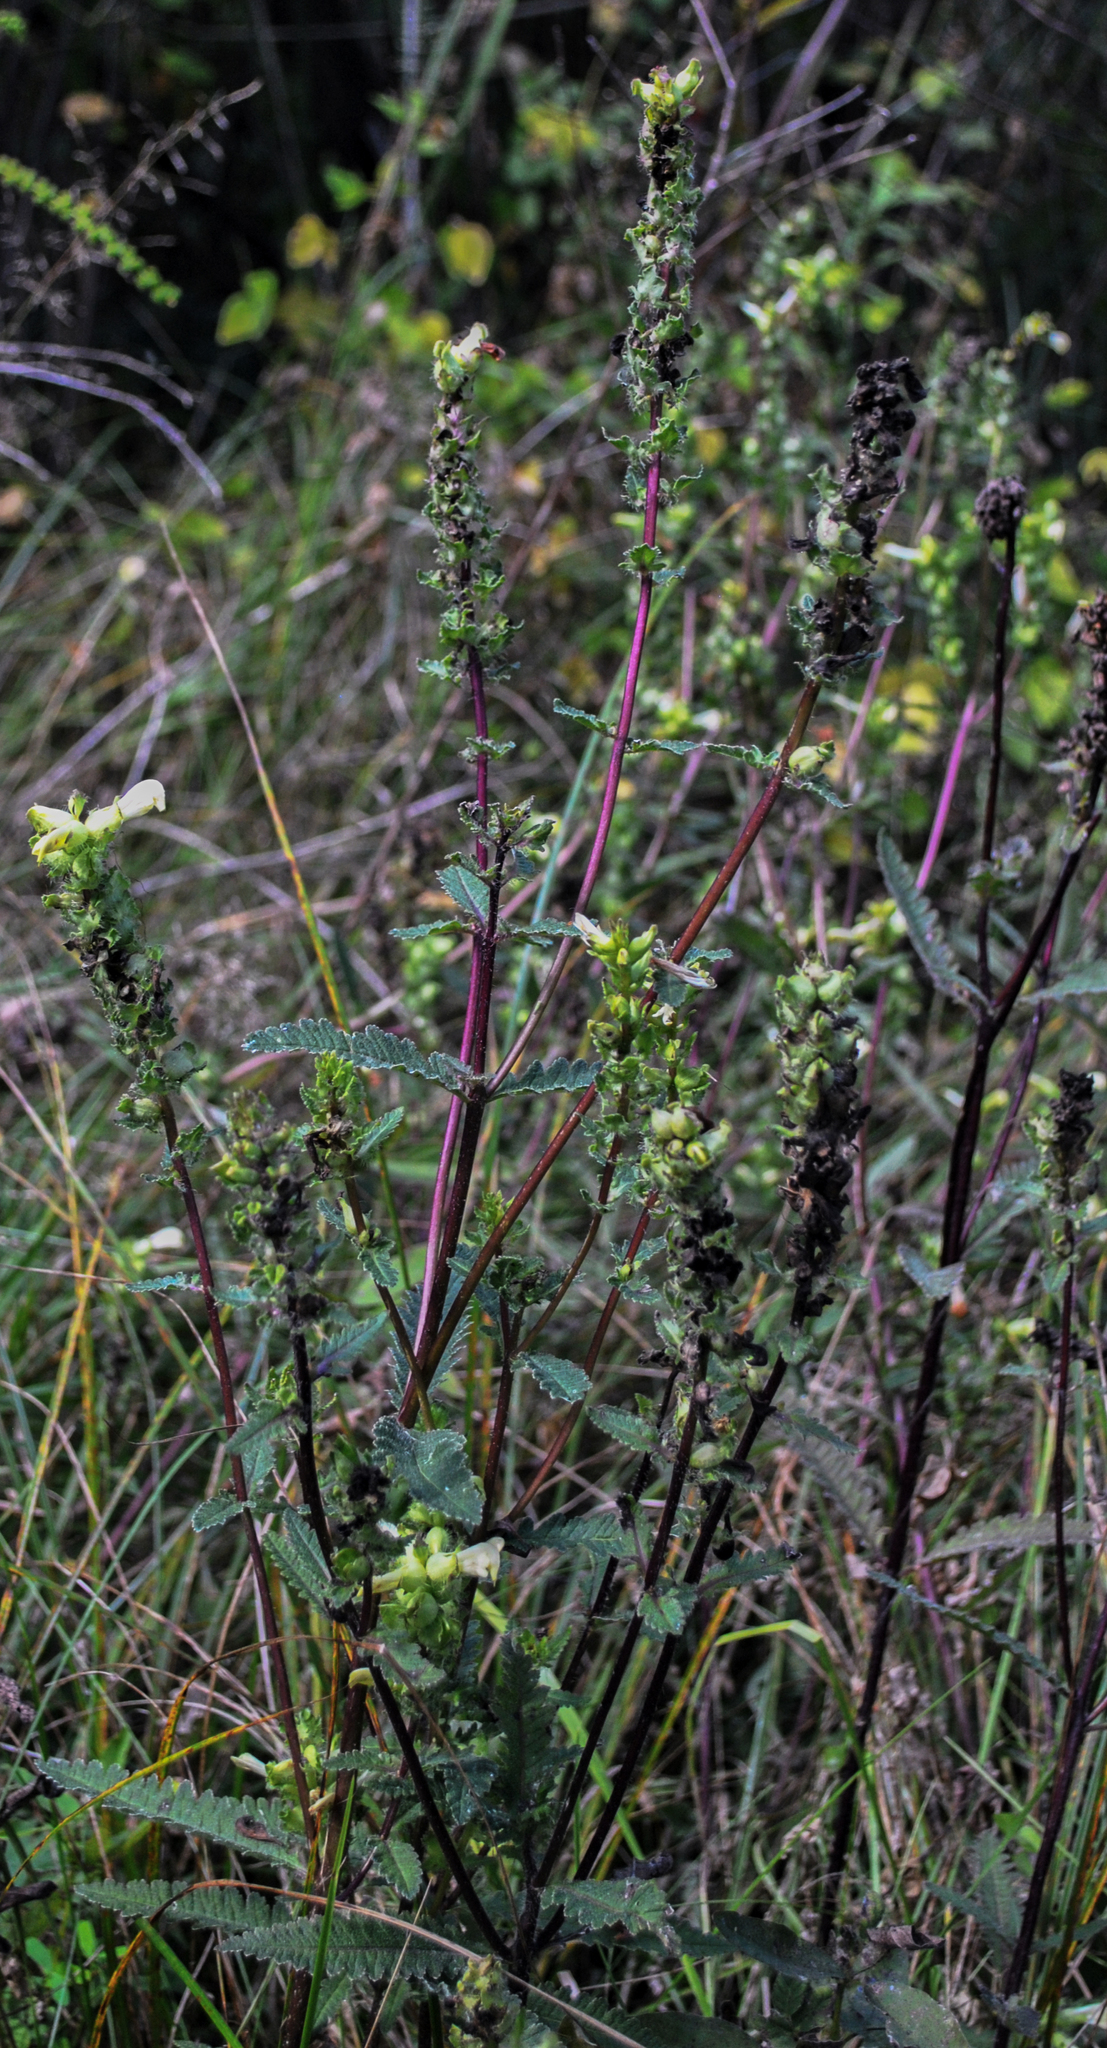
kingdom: Plantae
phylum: Tracheophyta
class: Magnoliopsida
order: Lamiales
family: Orobanchaceae
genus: Pedicularis
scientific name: Pedicularis lanceolata
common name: Swamp lousewort
